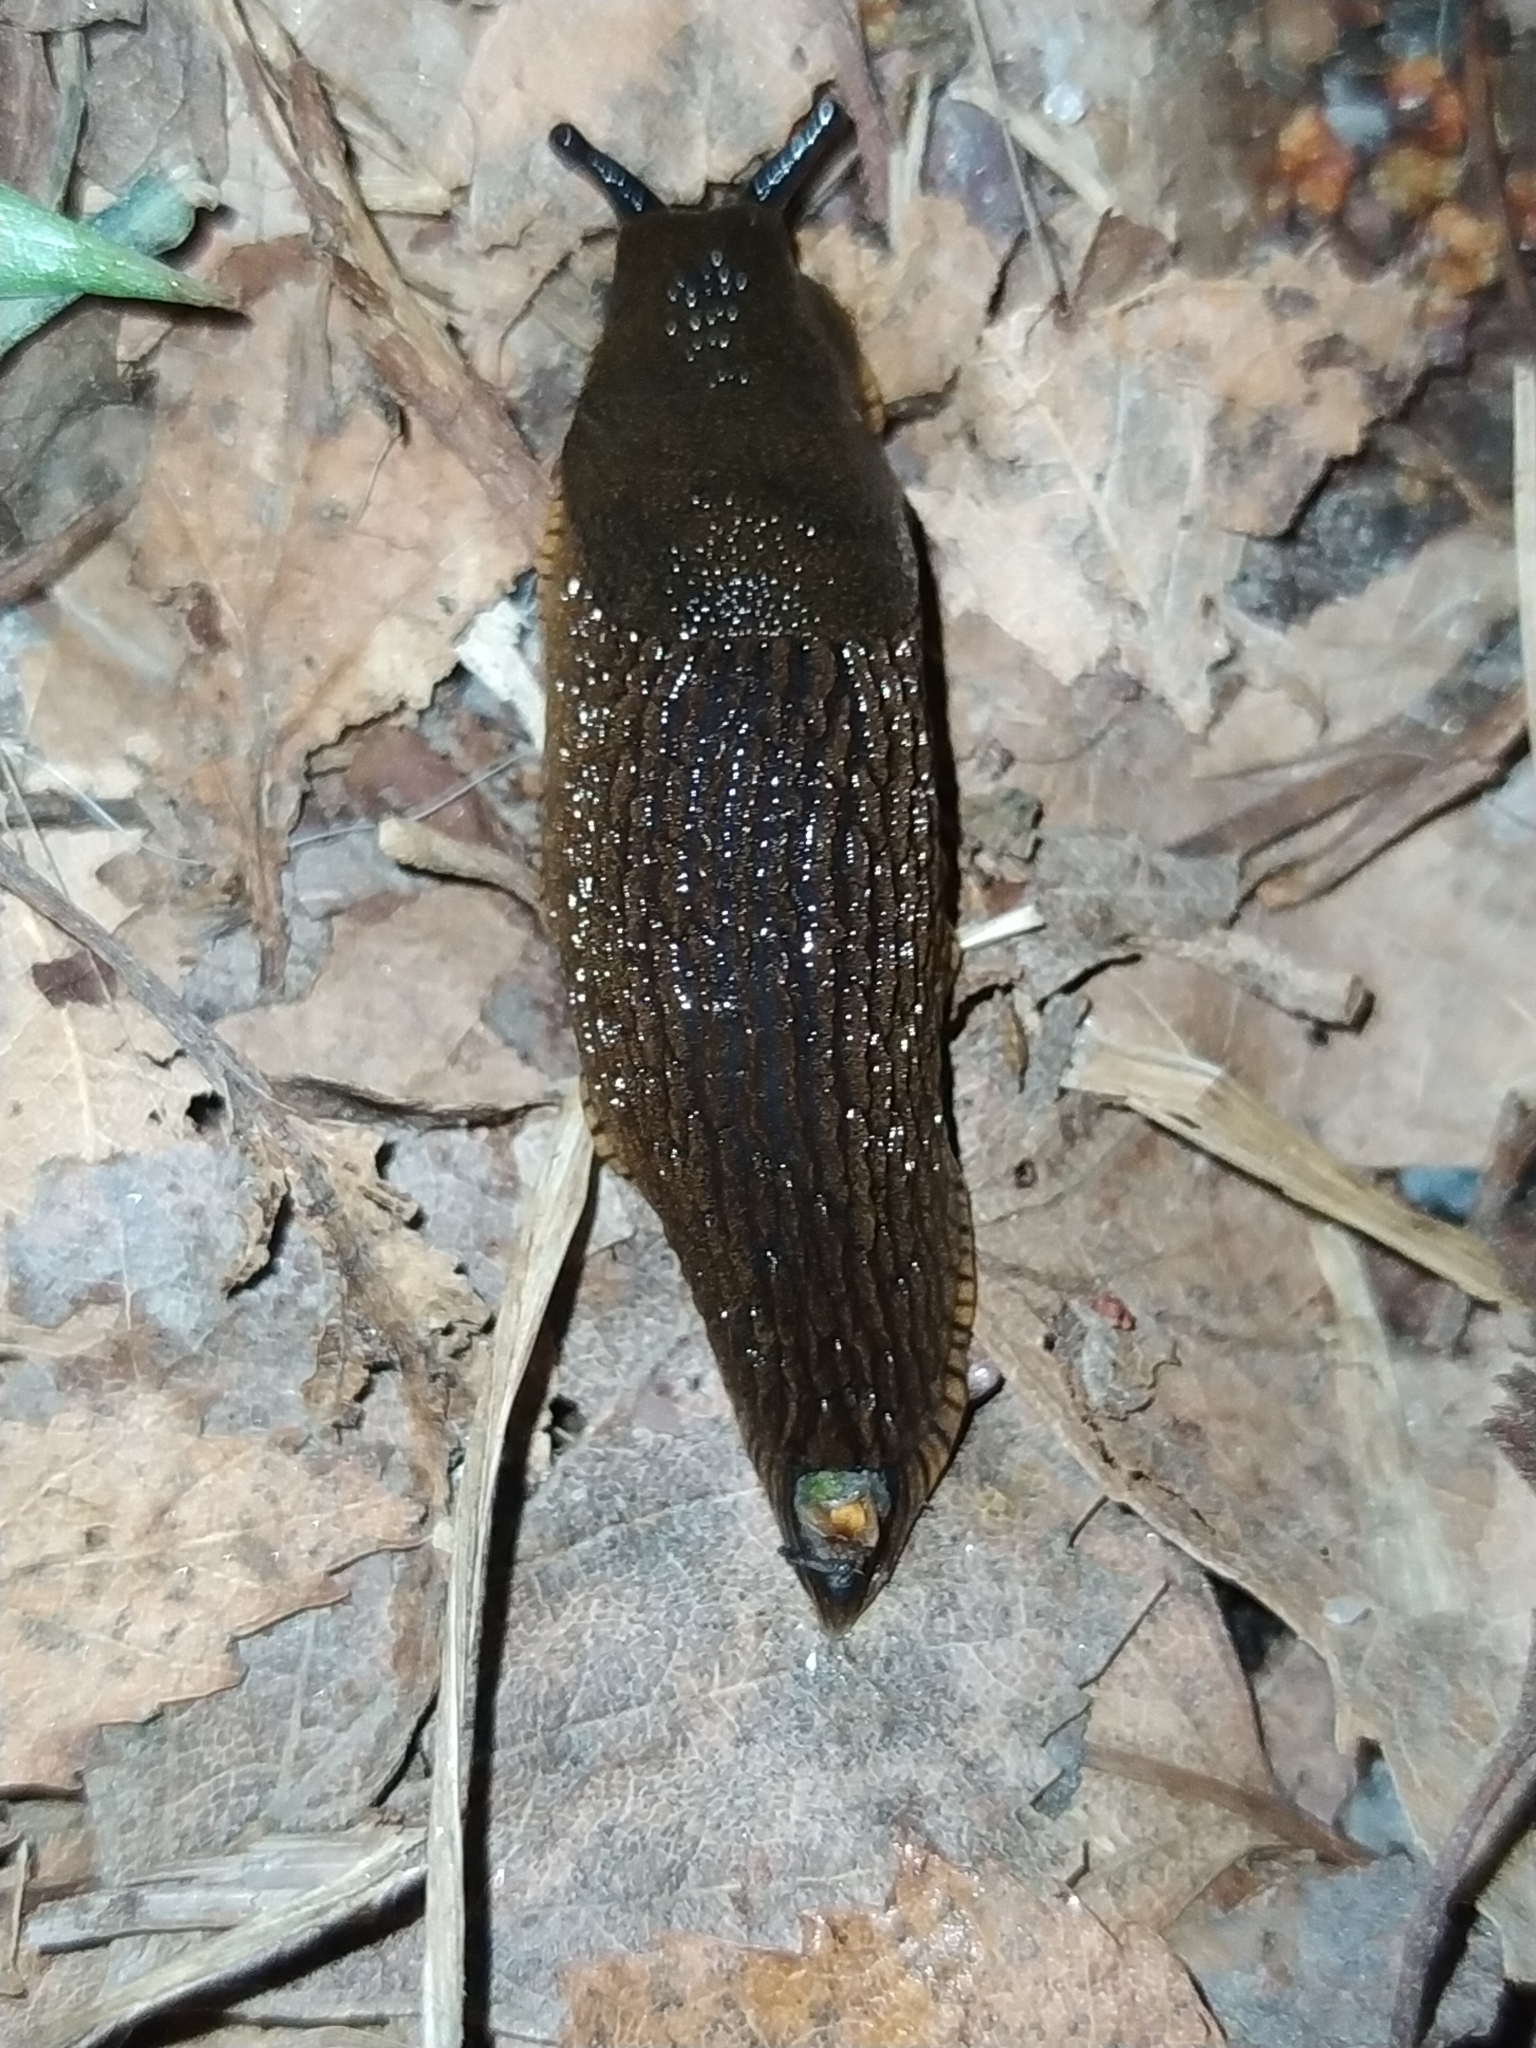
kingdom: Animalia
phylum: Mollusca
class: Gastropoda
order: Stylommatophora
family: Arionidae
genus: Arion
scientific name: Arion vulgaris
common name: Lusitanian slug
